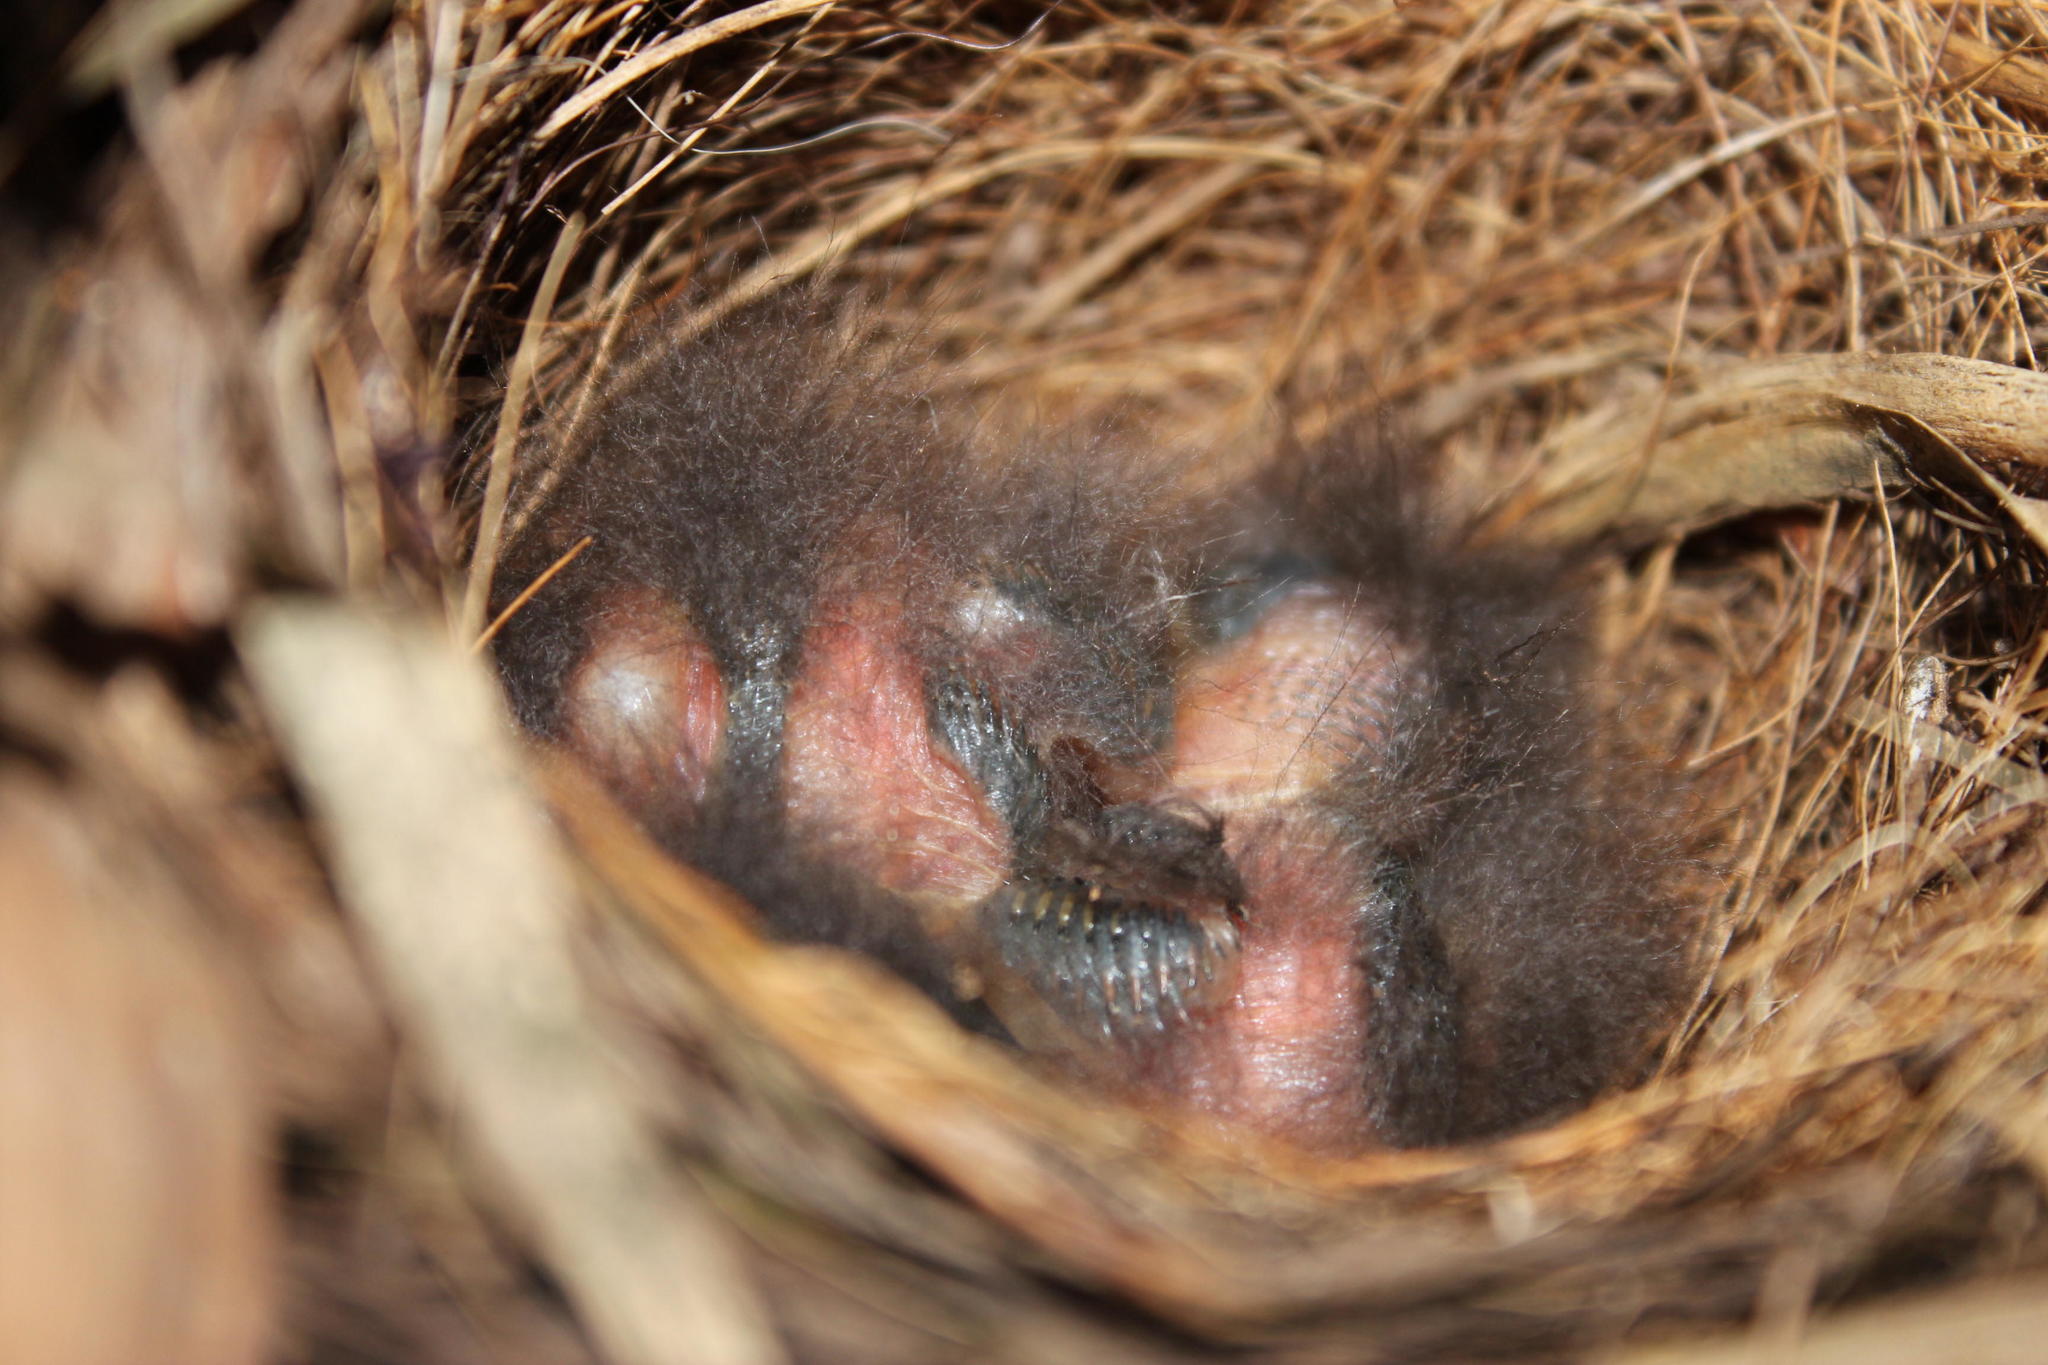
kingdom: Animalia
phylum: Chordata
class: Aves
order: Passeriformes
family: Muscicapidae
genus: Cossypha
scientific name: Cossypha caffra
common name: Cape robin-chat
